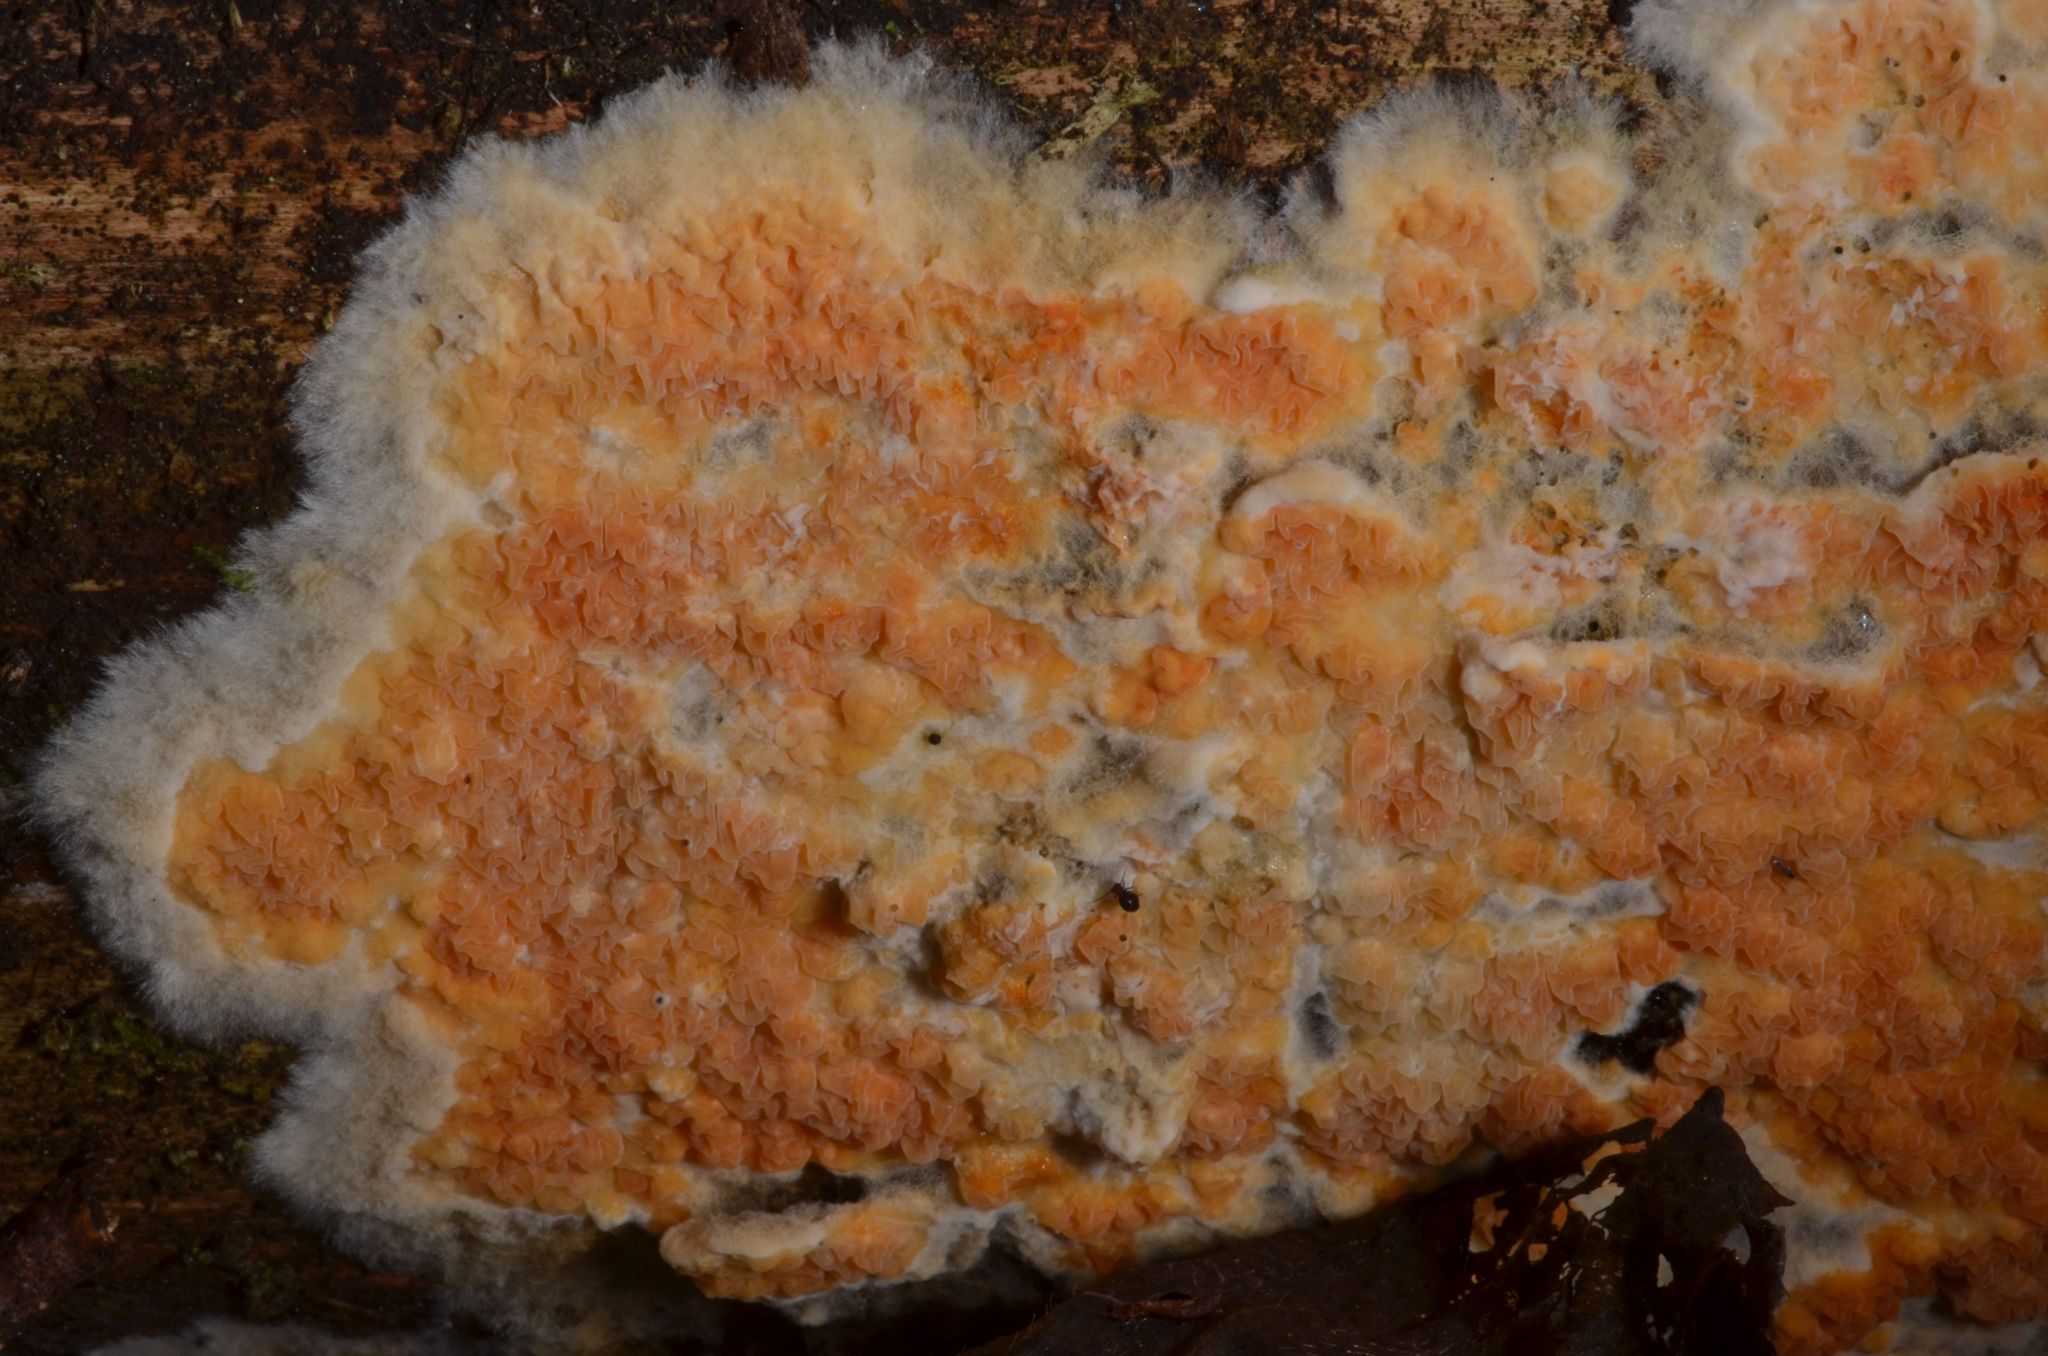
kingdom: Fungi
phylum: Basidiomycota
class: Agaricomycetes
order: Boletales
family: Hygrophoropsidaceae
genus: Leucogyrophana
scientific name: Leucogyrophana mollusca
